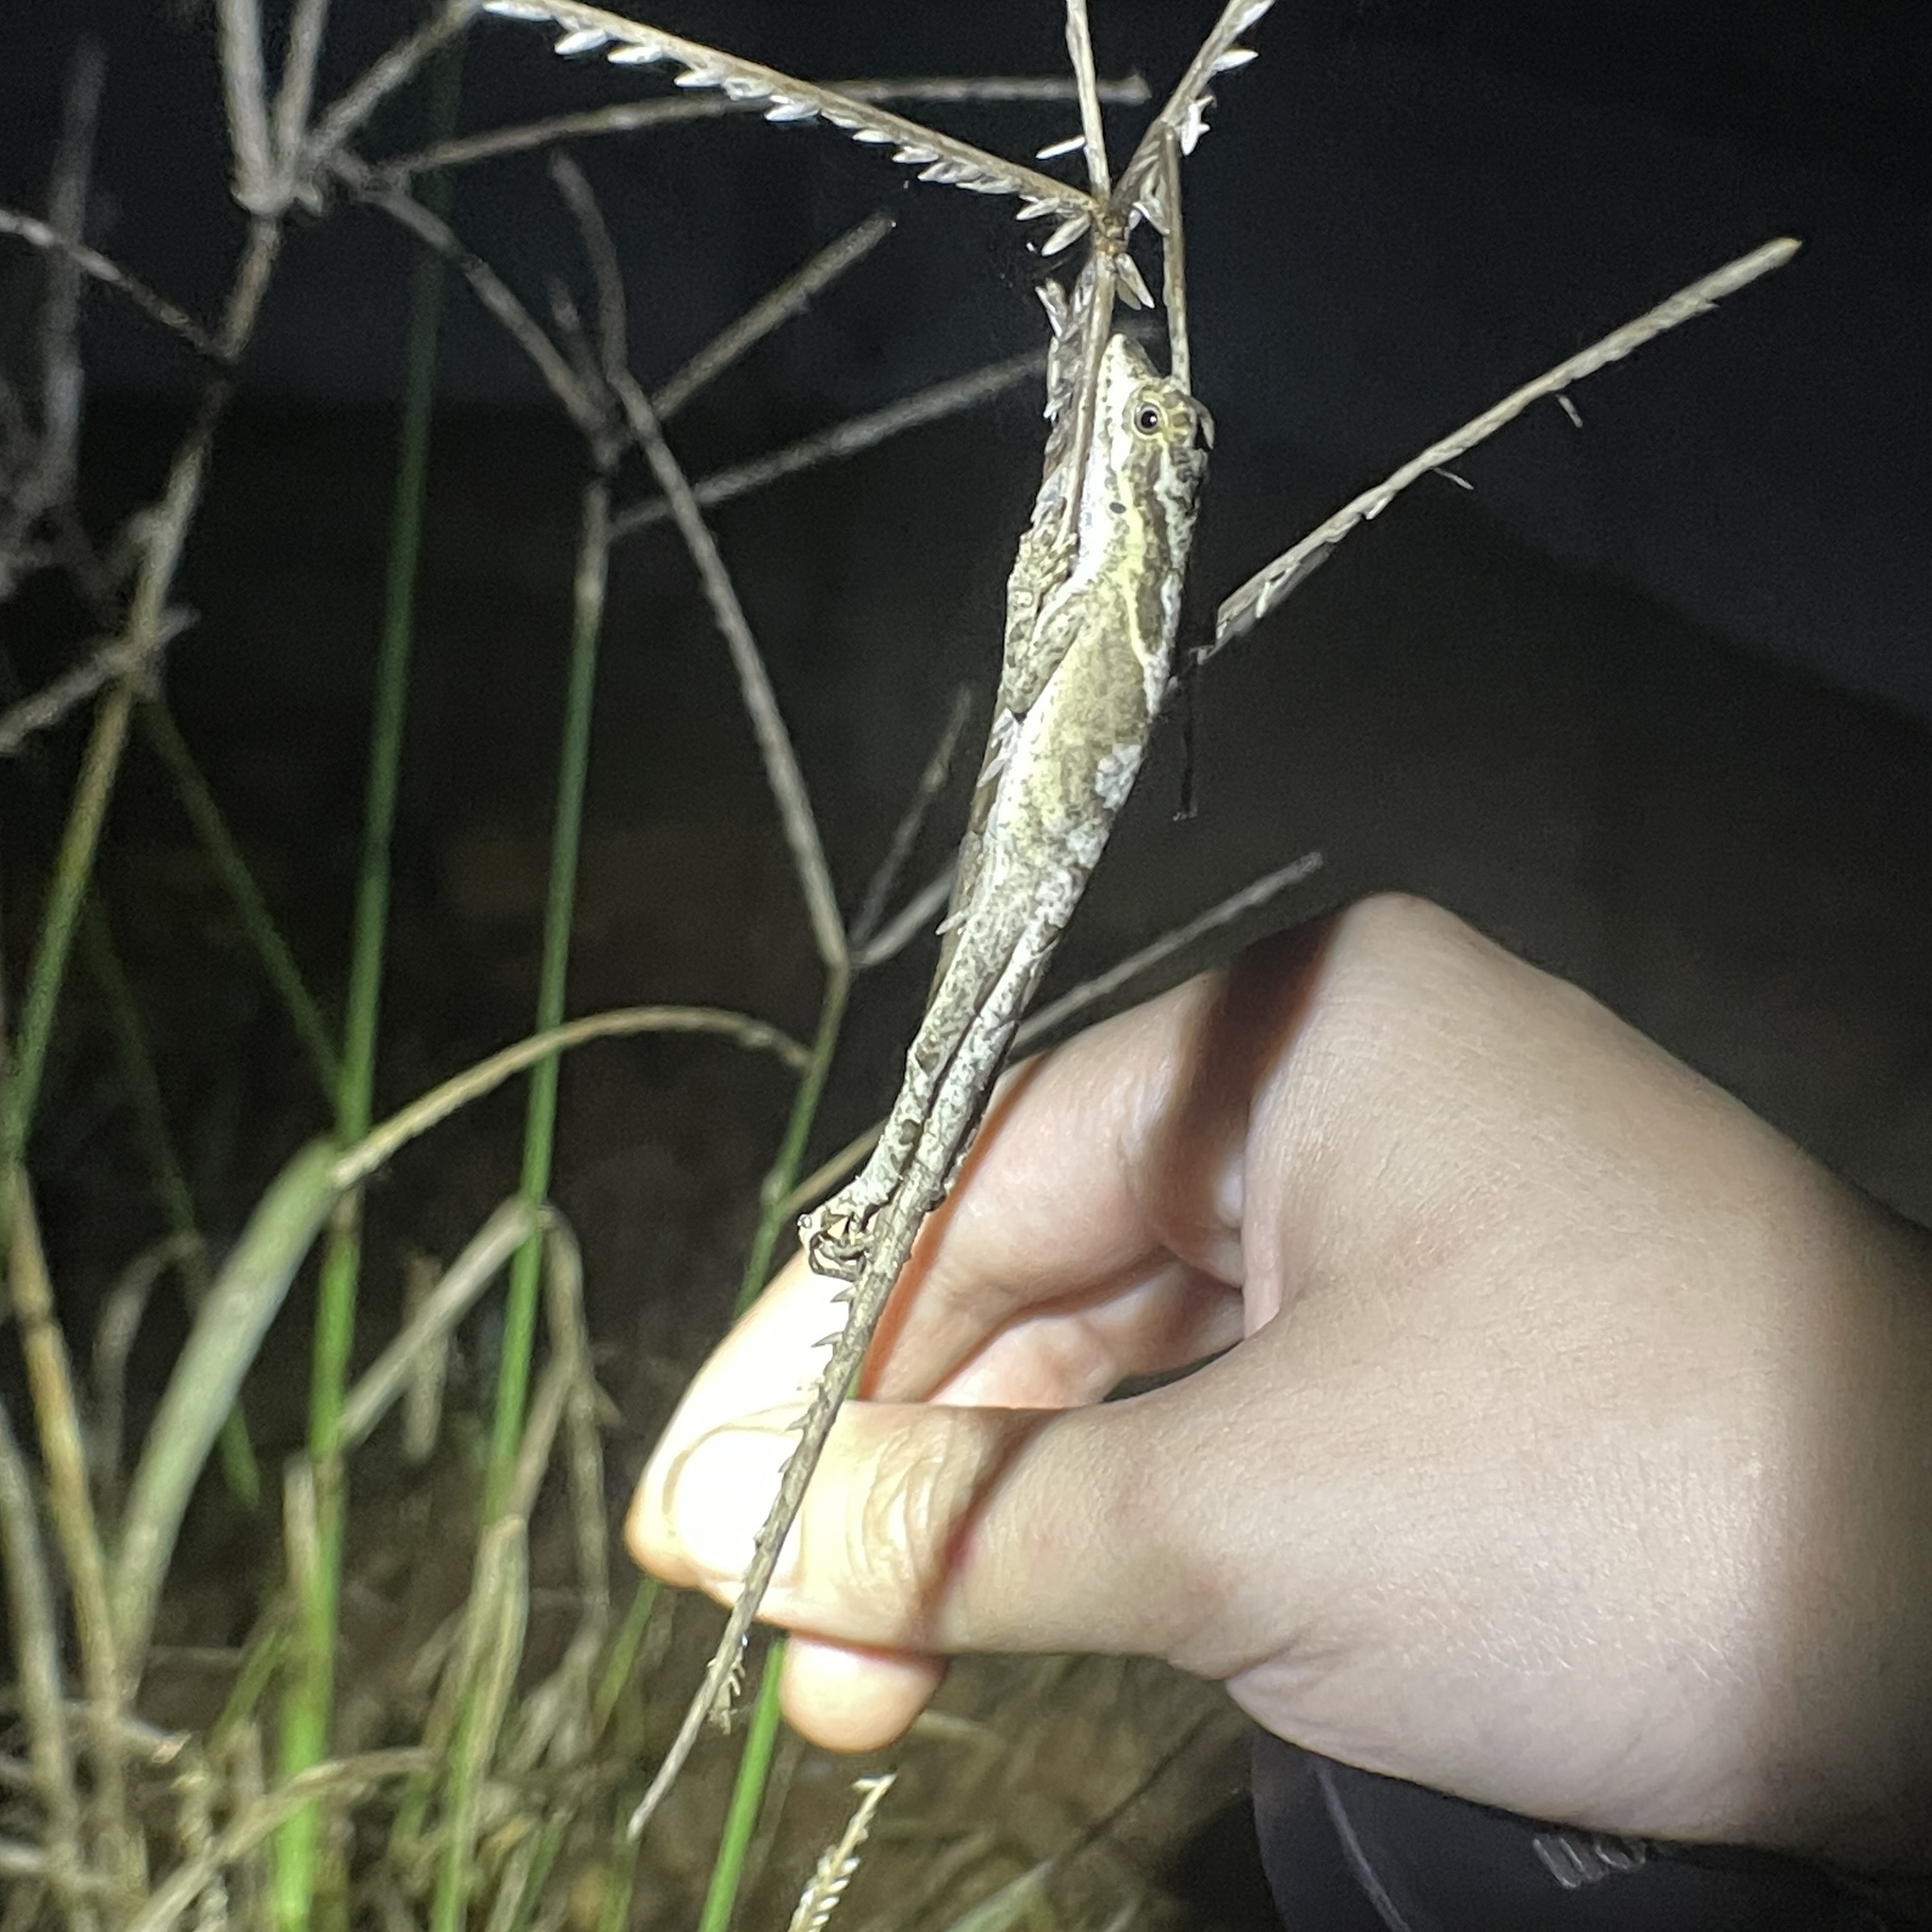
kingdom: Animalia
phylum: Chordata
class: Squamata
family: Dactyloidae
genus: Anolis
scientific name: Anolis planiceps
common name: Goldenscale anole
